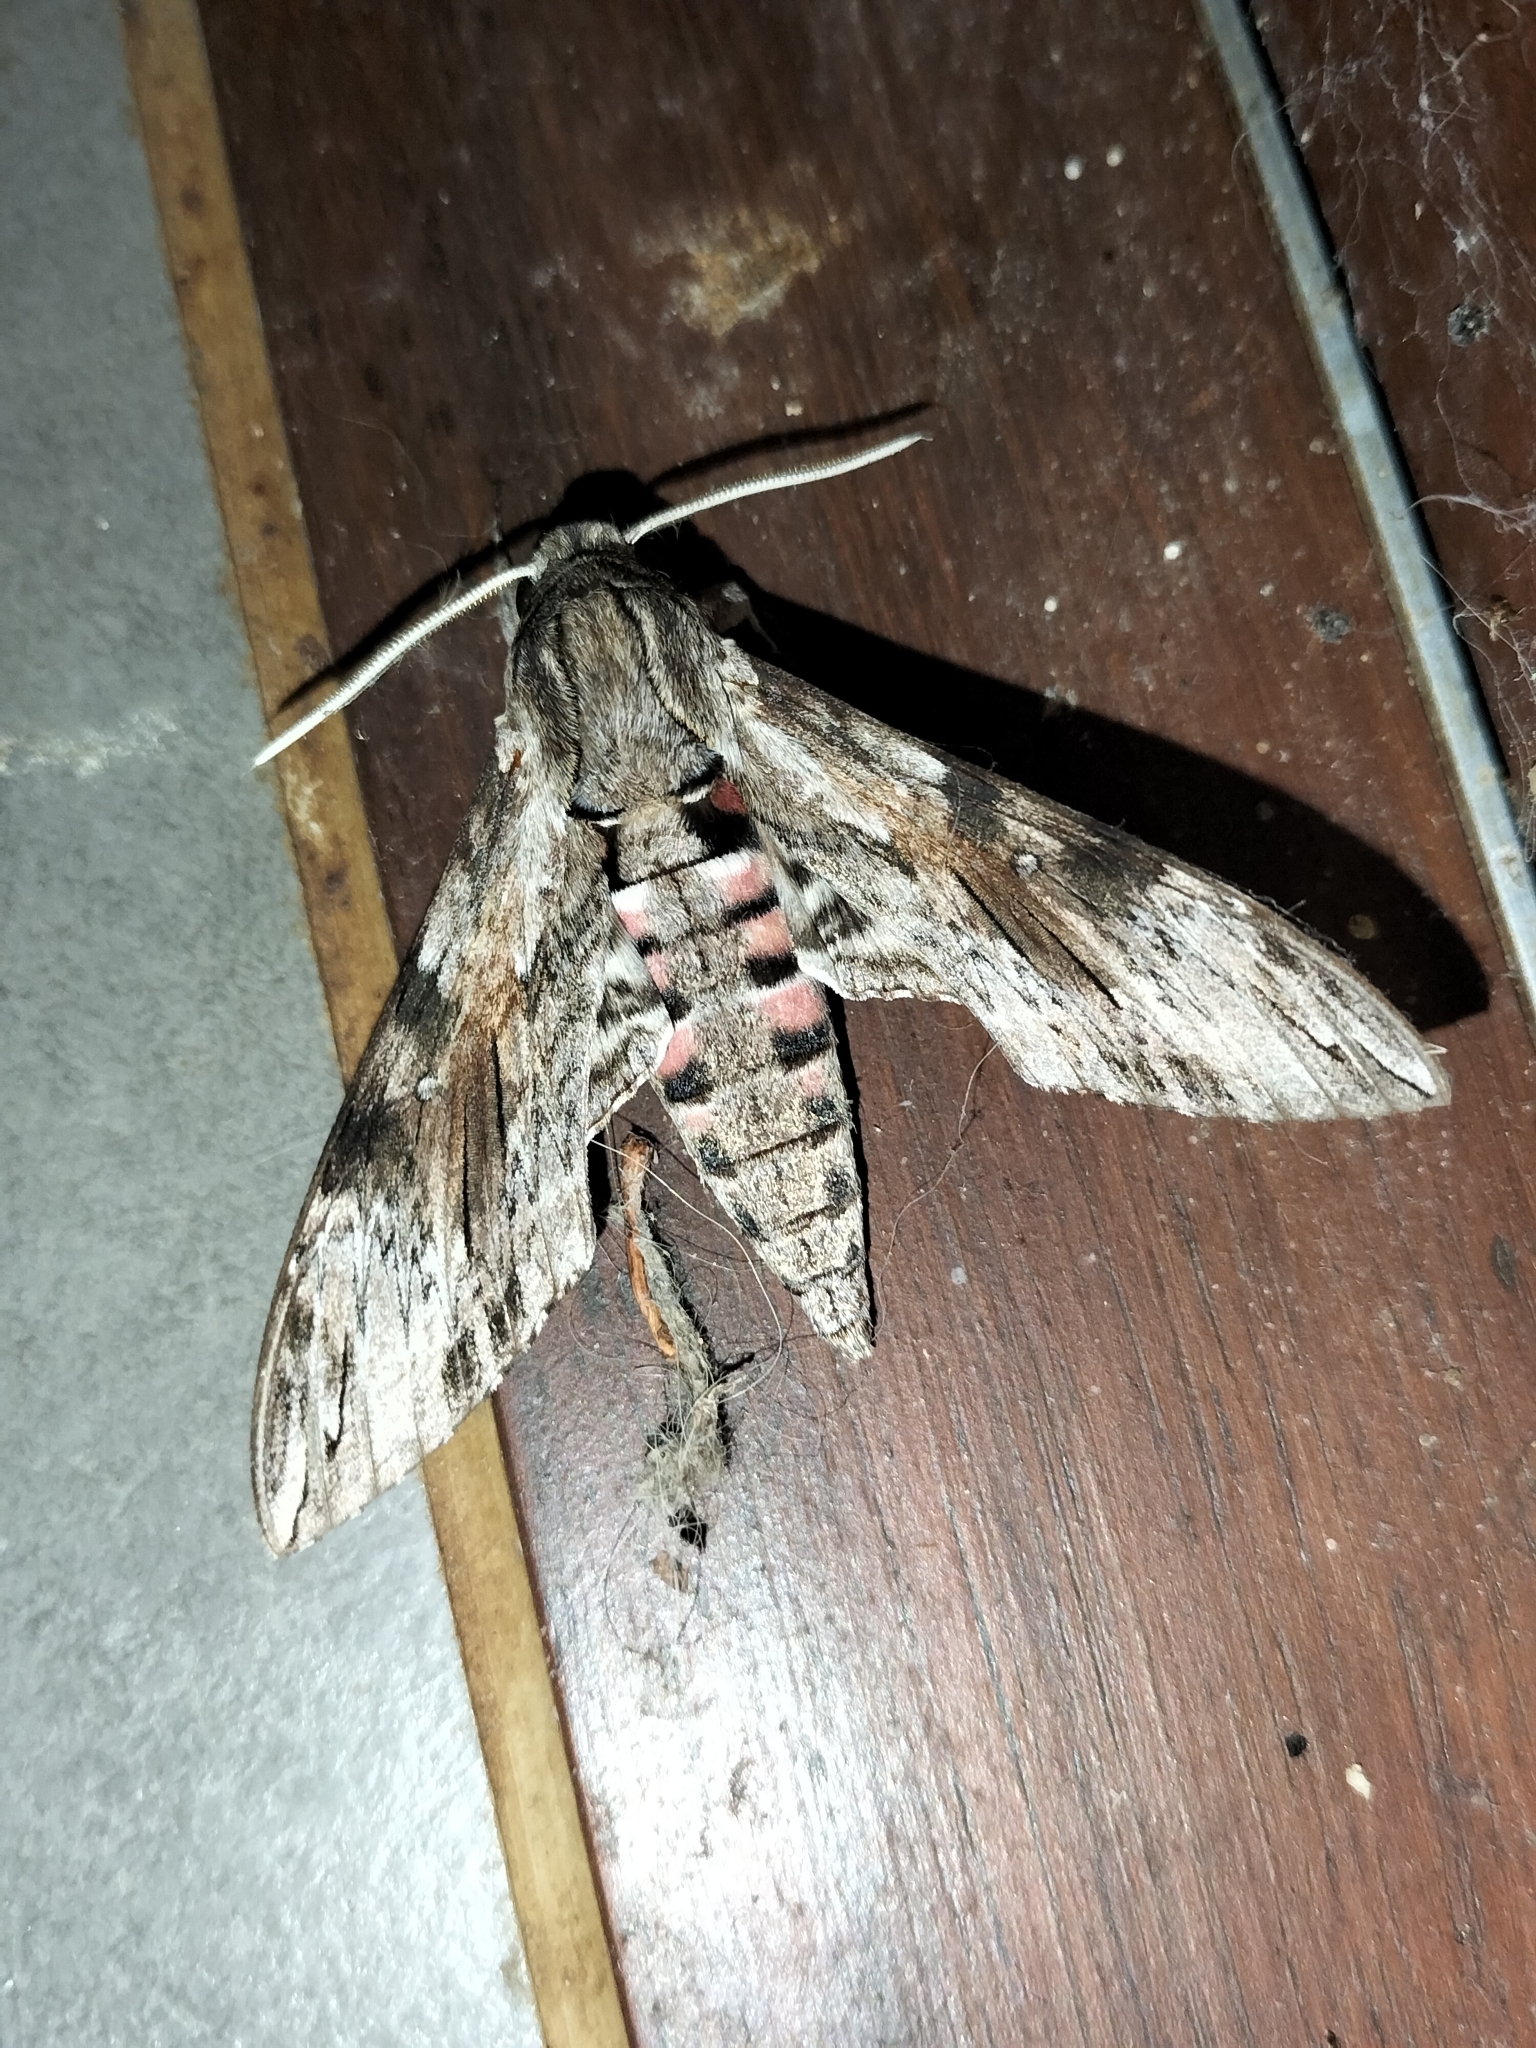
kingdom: Animalia
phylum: Arthropoda
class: Insecta
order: Lepidoptera
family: Sphingidae
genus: Agrius
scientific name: Agrius convolvuli
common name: Convolvulus hawkmoth
